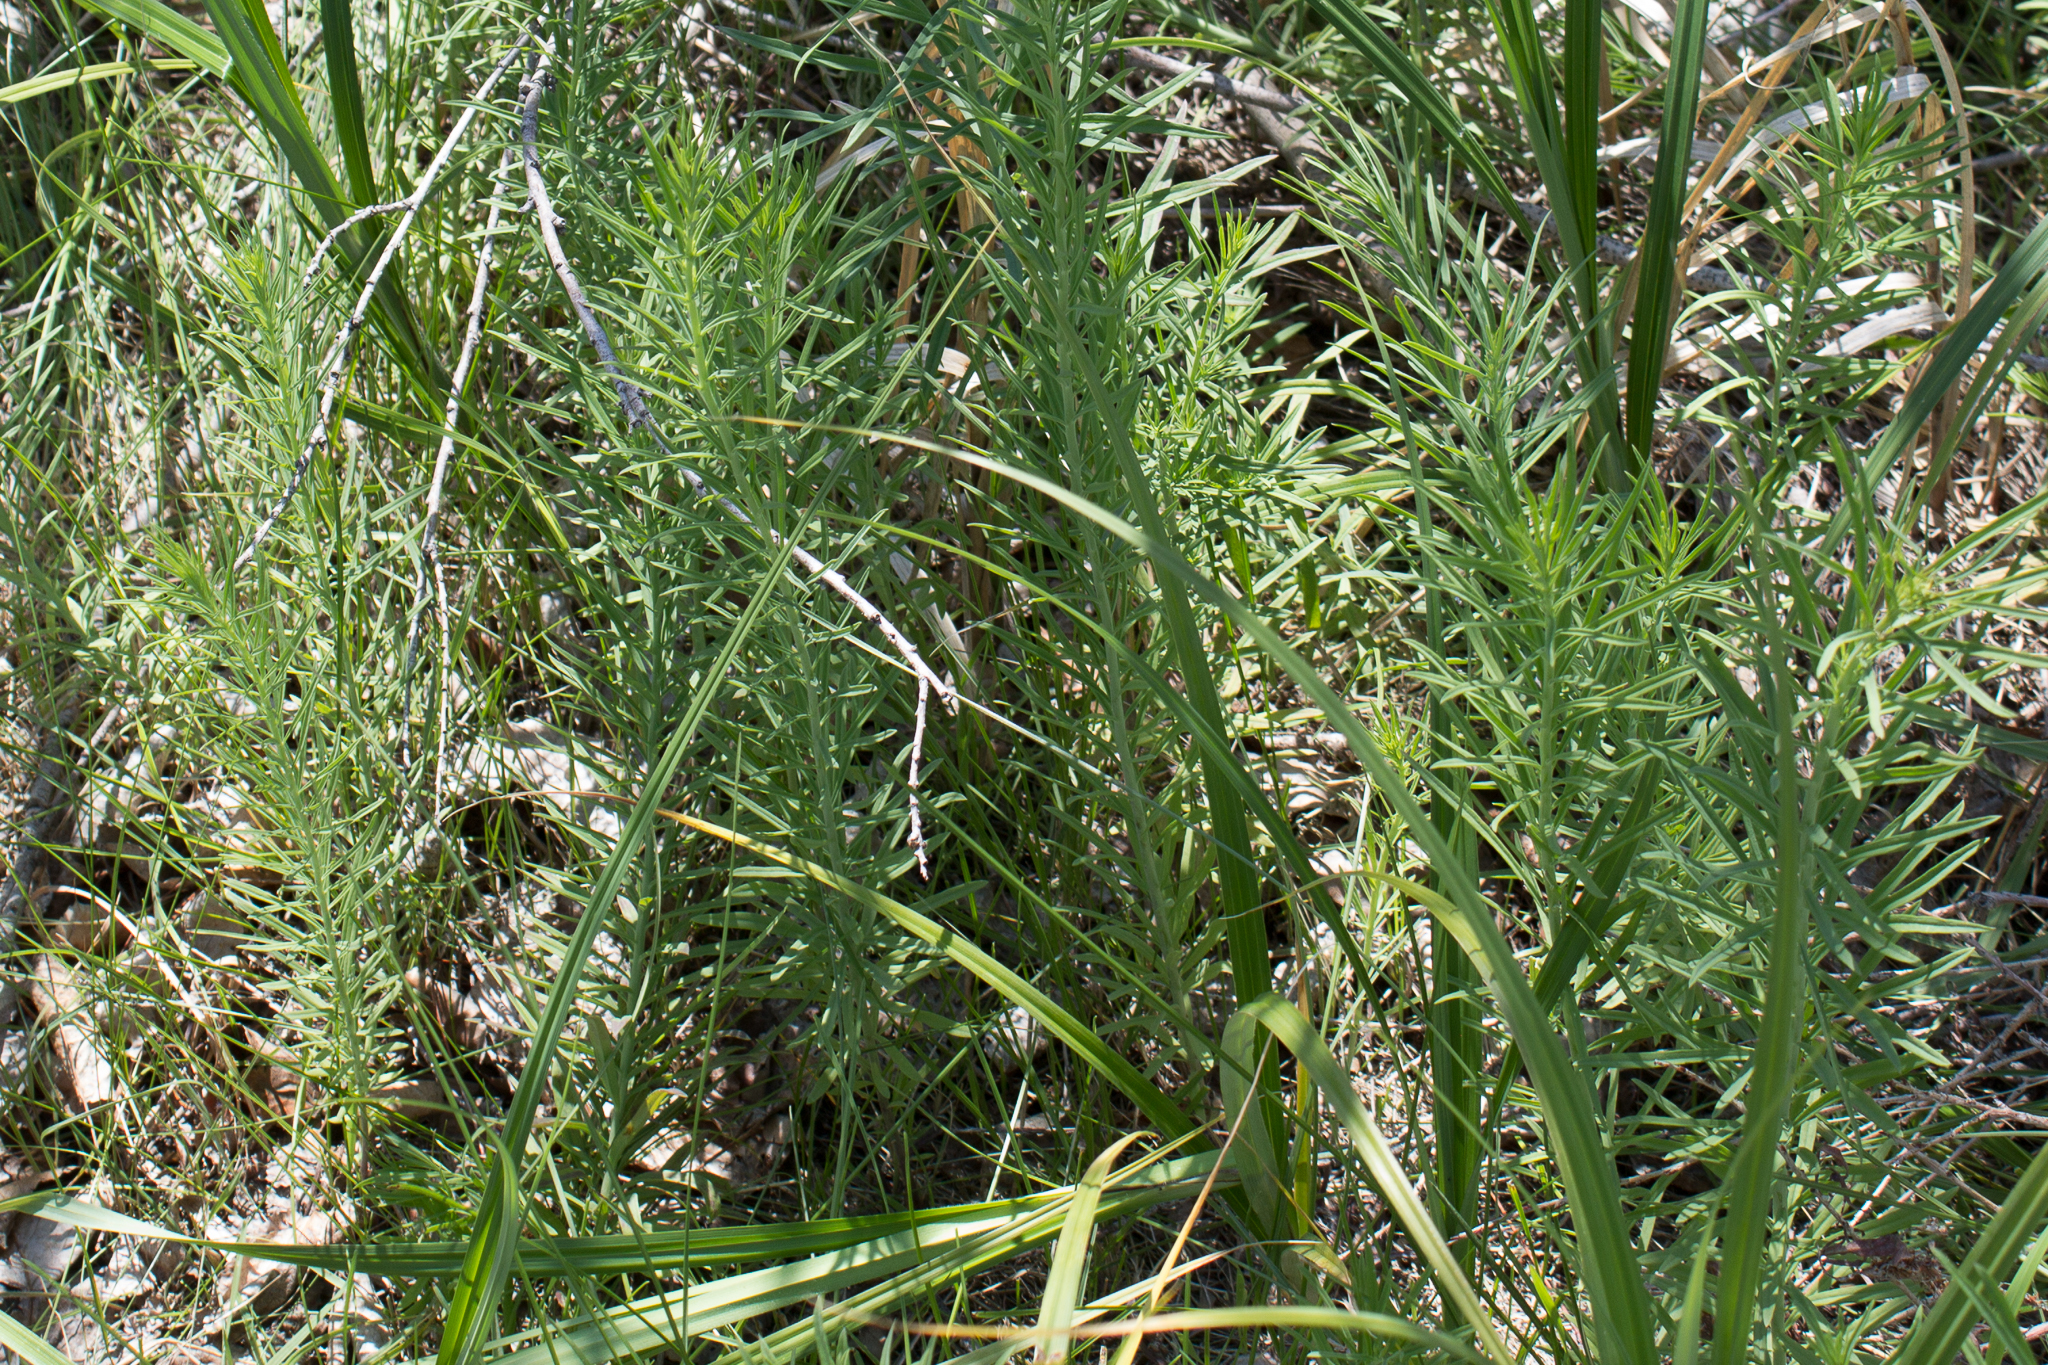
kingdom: Plantae
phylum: Tracheophyta
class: Magnoliopsida
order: Lamiales
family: Plantaginaceae
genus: Linaria
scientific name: Linaria vulgaris
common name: Butter and eggs
